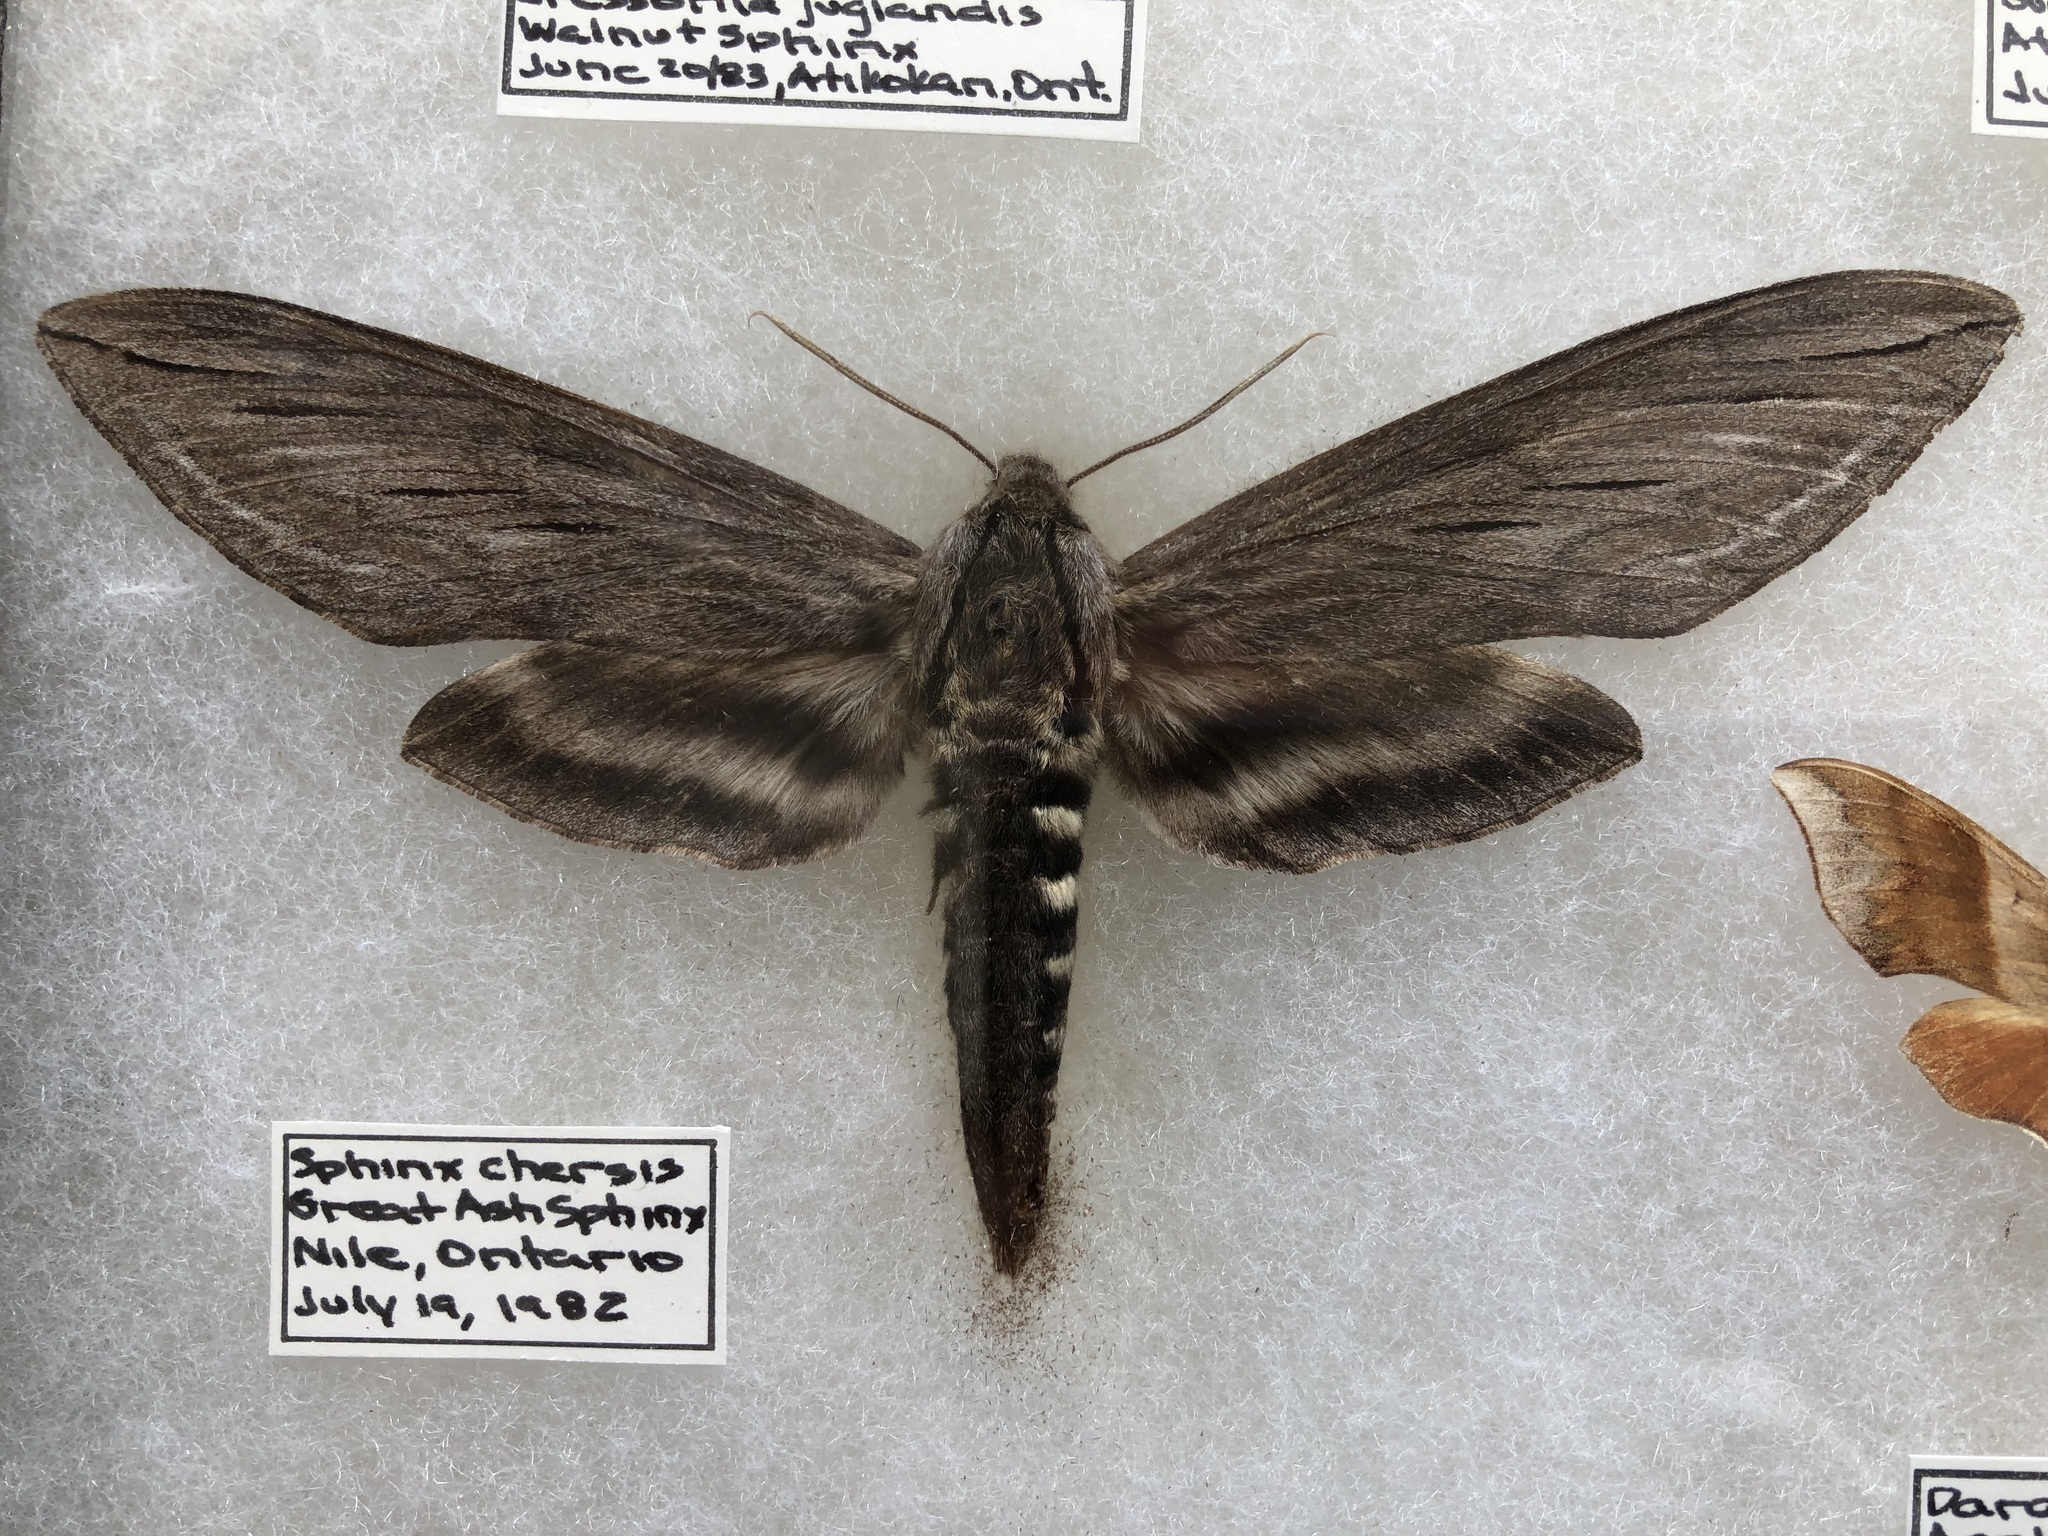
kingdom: Animalia
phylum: Arthropoda
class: Insecta
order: Lepidoptera
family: Sphingidae
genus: Sphinx
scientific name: Sphinx chersis
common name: Great ash sphinx
